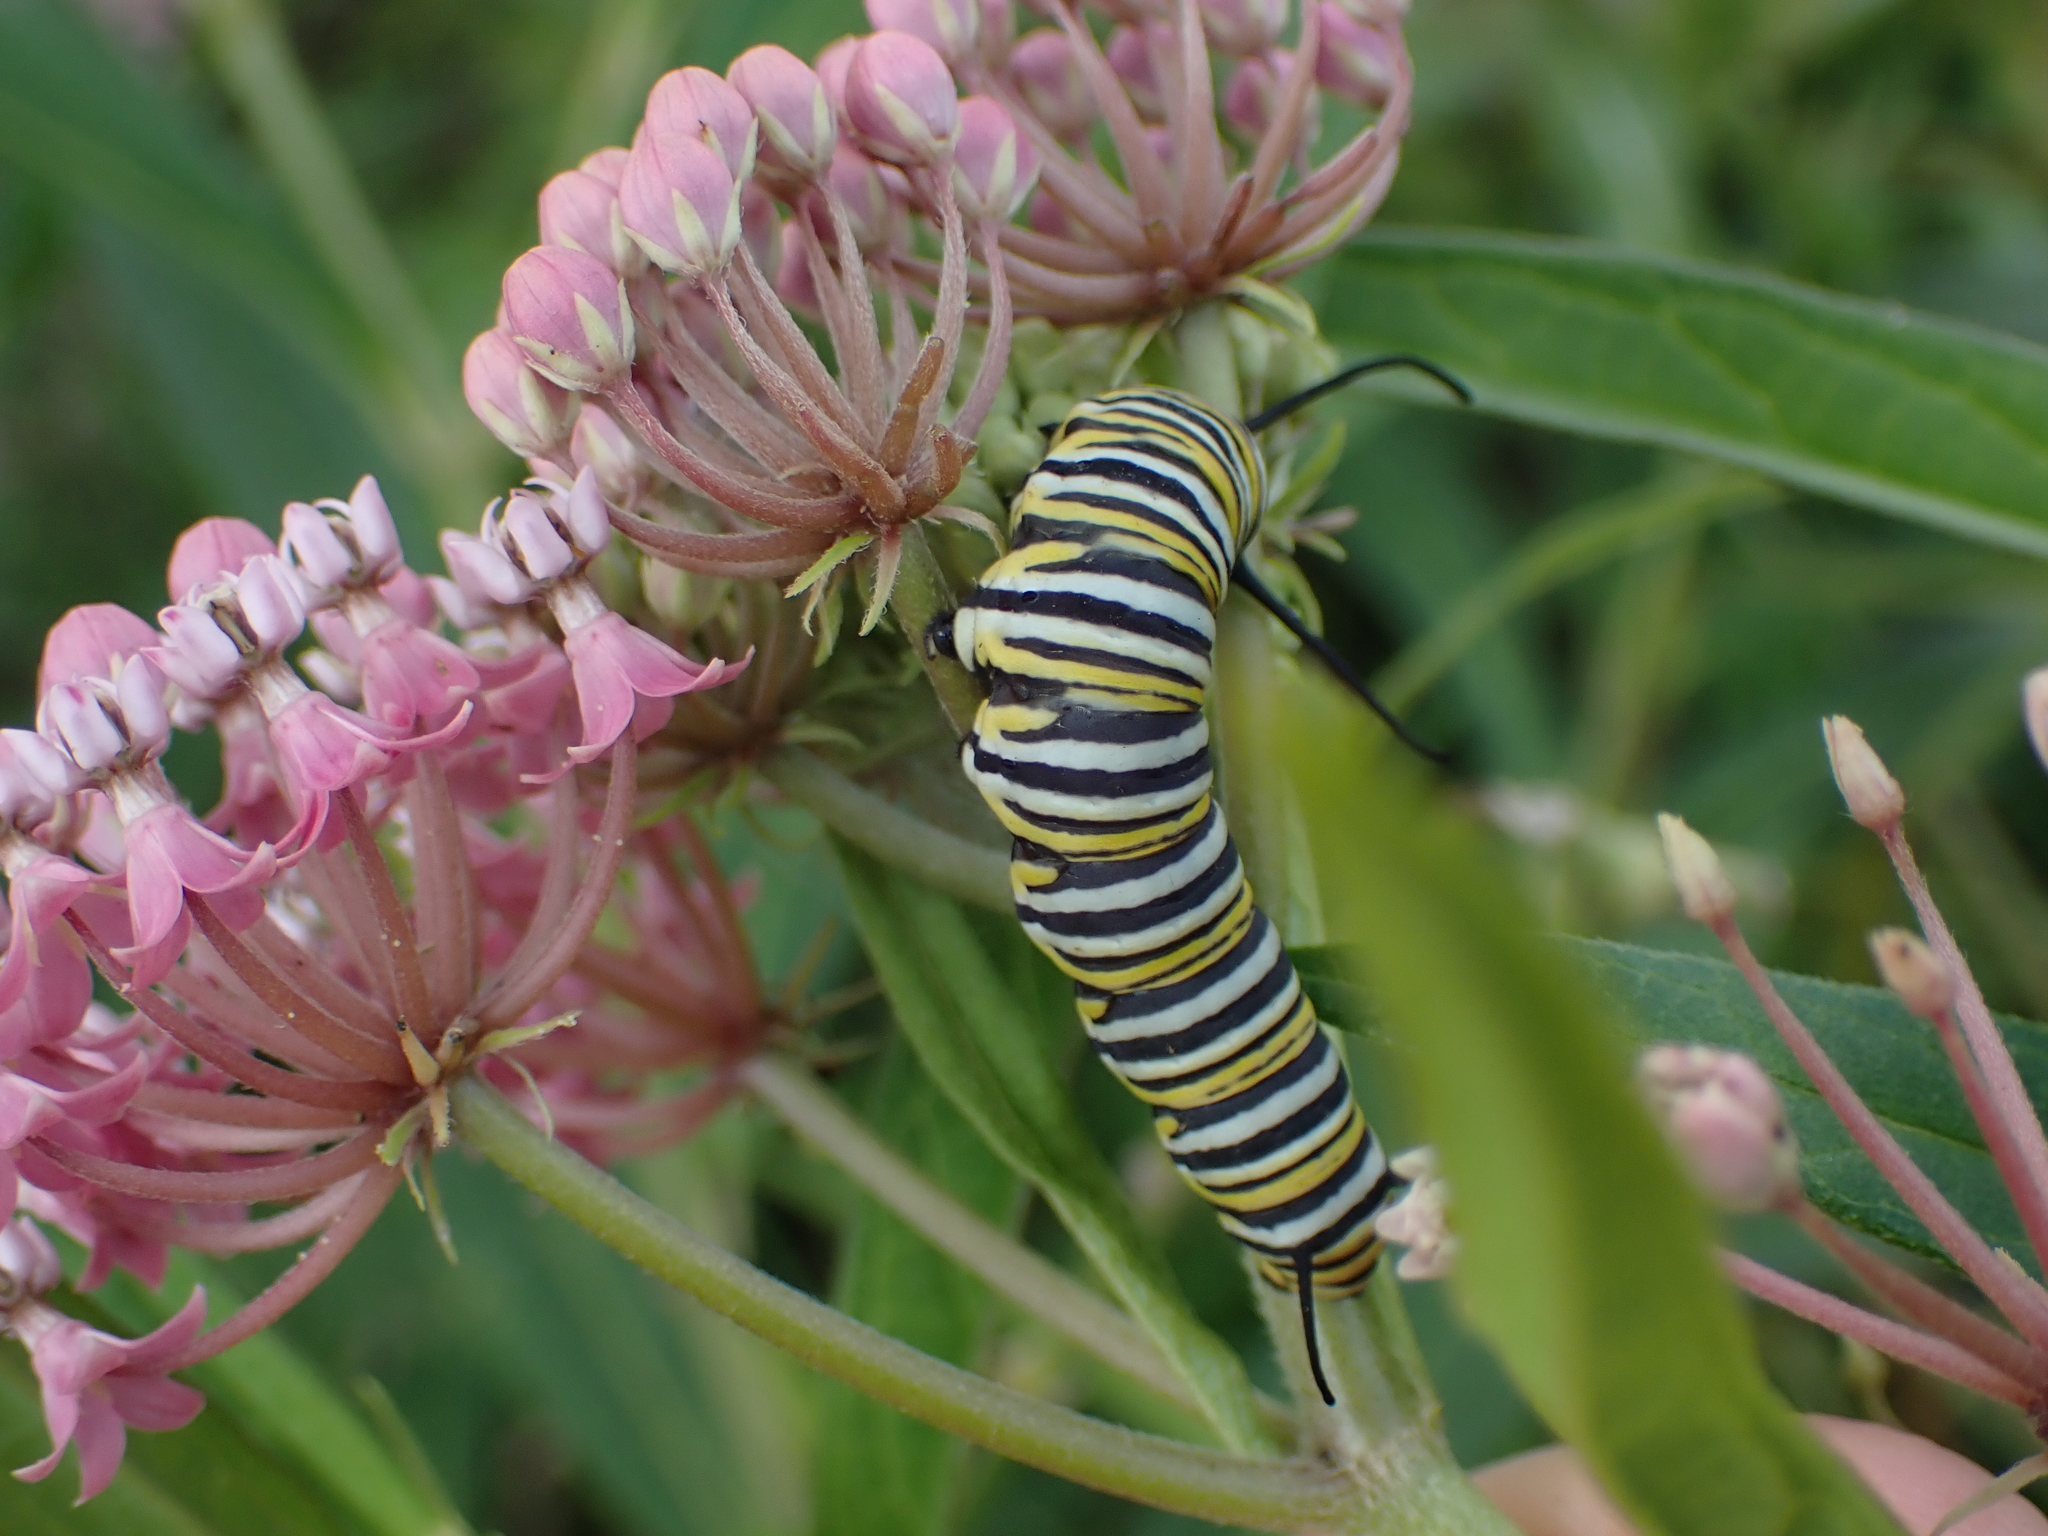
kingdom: Animalia
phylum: Arthropoda
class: Insecta
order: Lepidoptera
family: Nymphalidae
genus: Danaus
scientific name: Danaus plexippus
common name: Monarch
